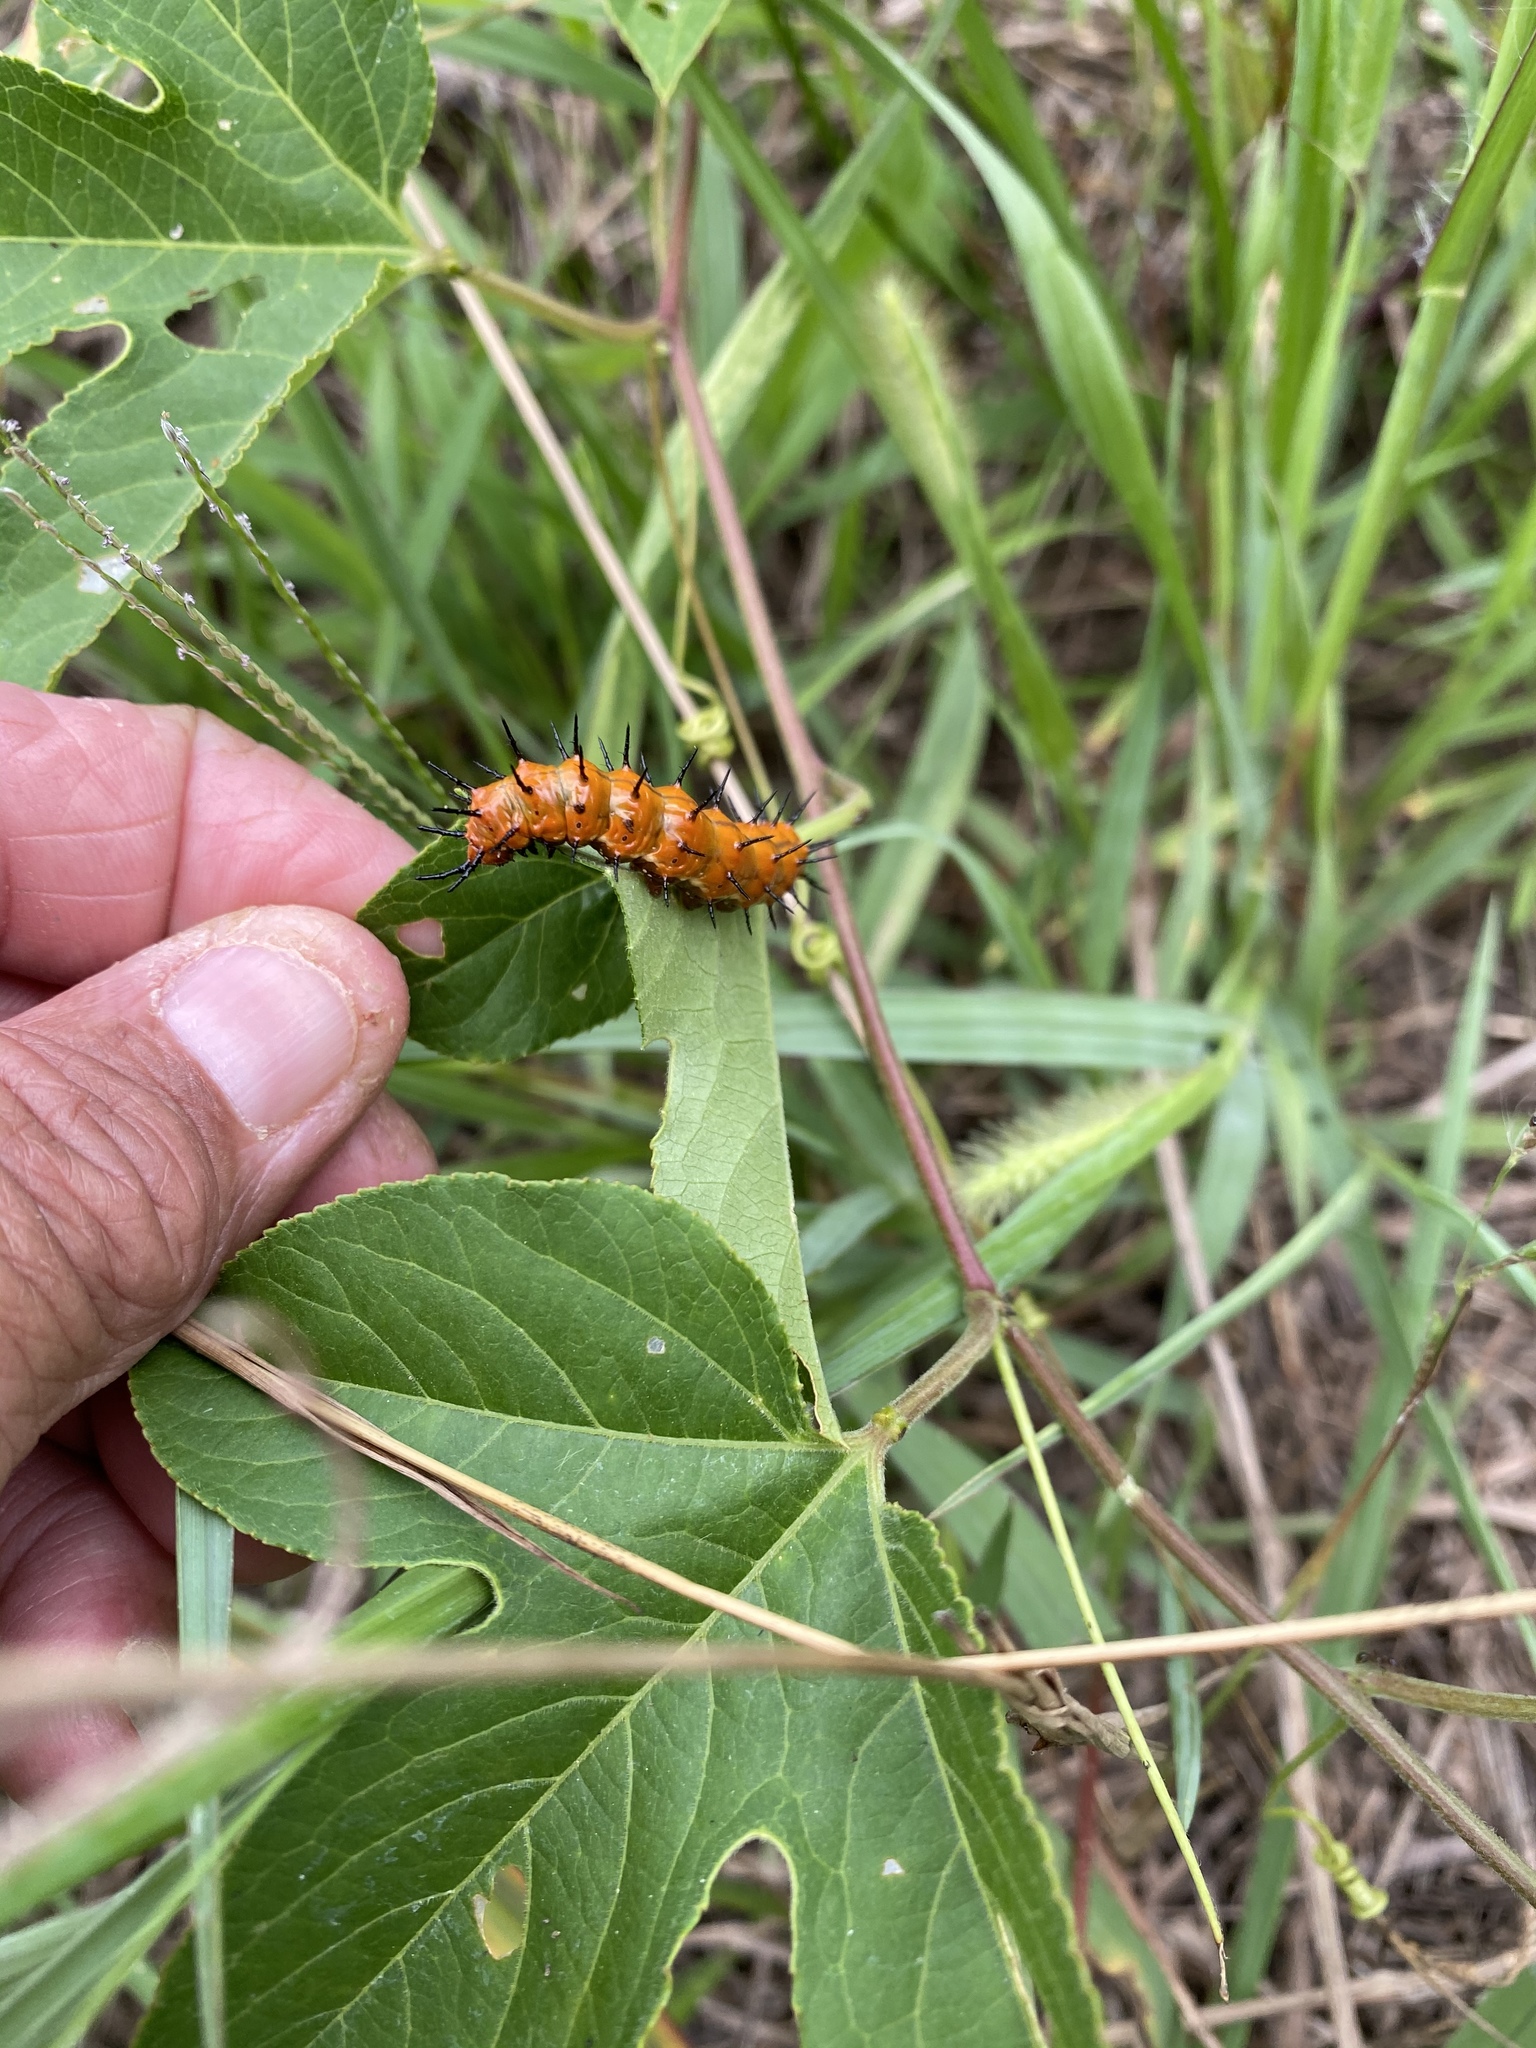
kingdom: Animalia
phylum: Arthropoda
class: Insecta
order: Lepidoptera
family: Nymphalidae
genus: Dione
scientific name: Dione vanillae
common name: Gulf fritillary
